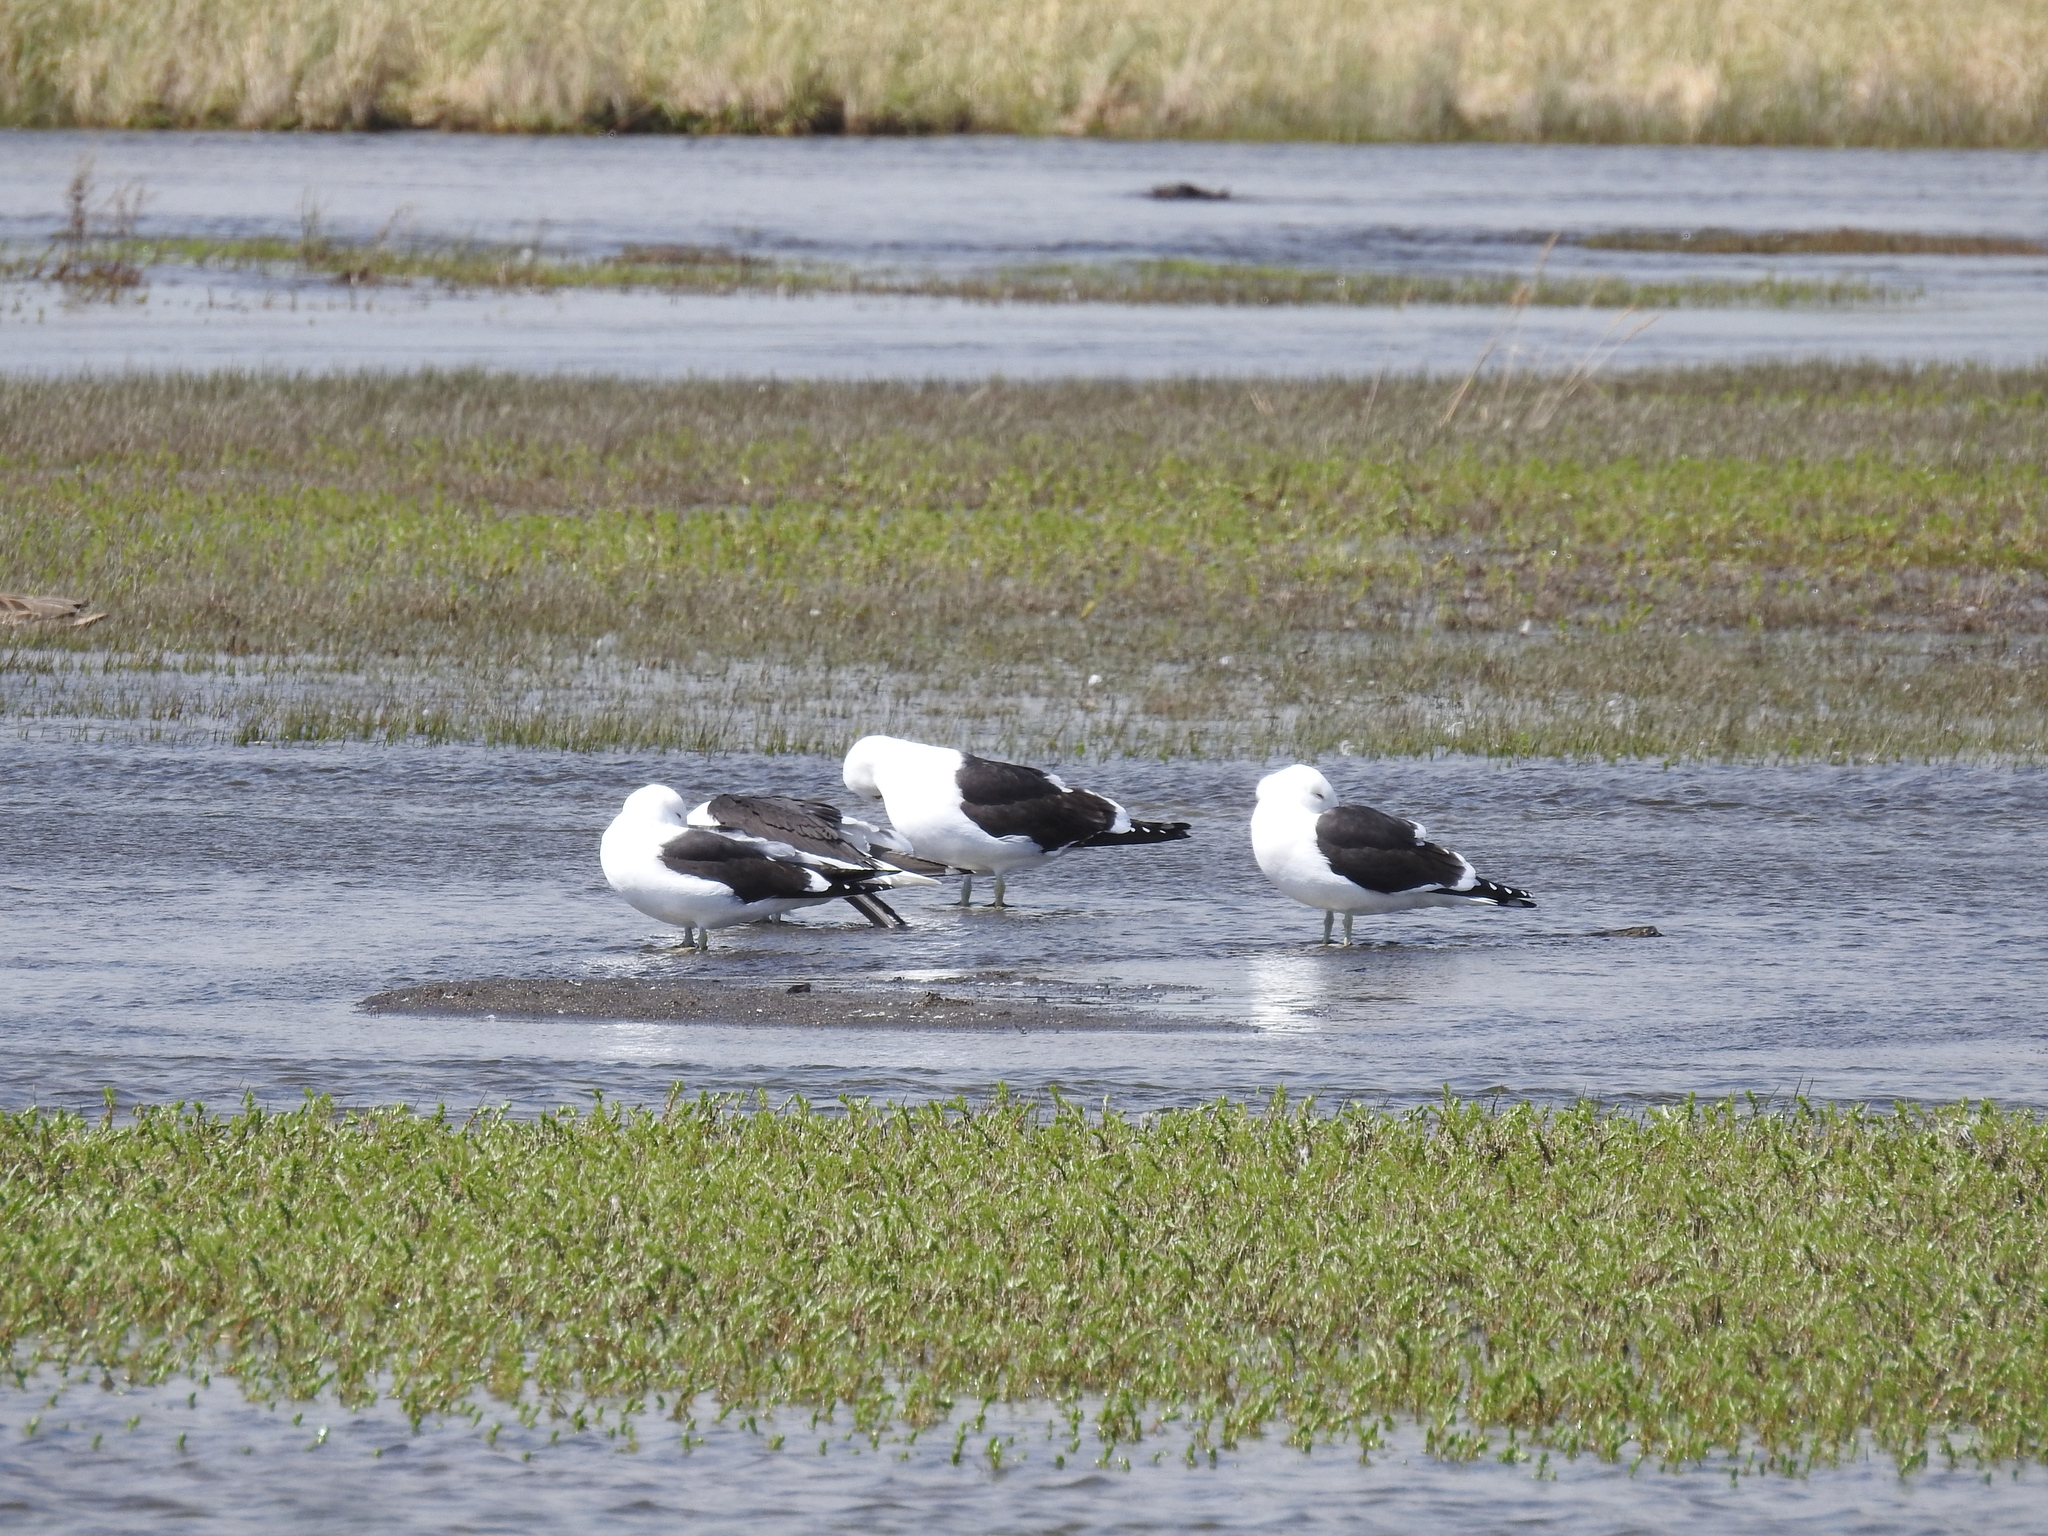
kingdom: Animalia
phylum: Chordata
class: Aves
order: Charadriiformes
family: Laridae
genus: Larus
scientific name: Larus dominicanus
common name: Kelp gull
